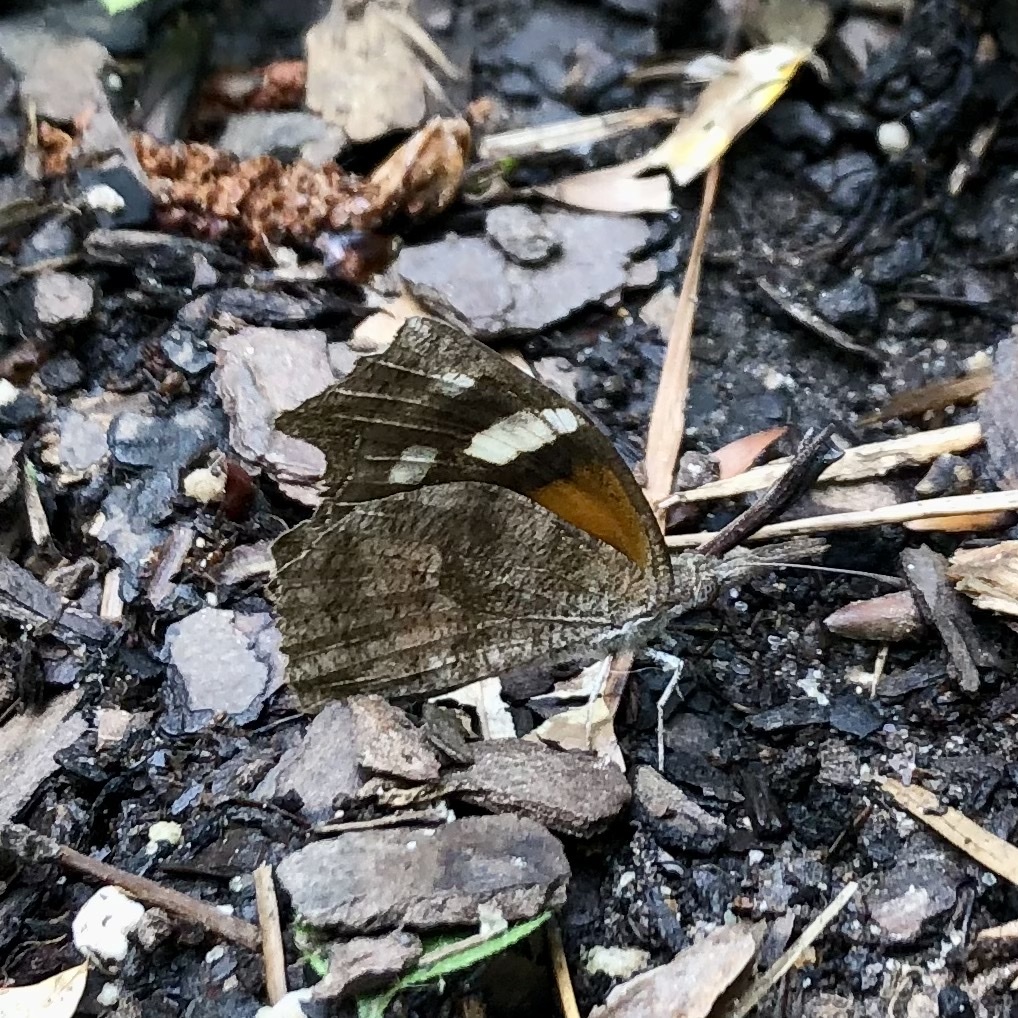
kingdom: Animalia
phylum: Arthropoda
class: Insecta
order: Lepidoptera
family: Nymphalidae
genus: Libytheana
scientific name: Libytheana carinenta
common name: American snout
